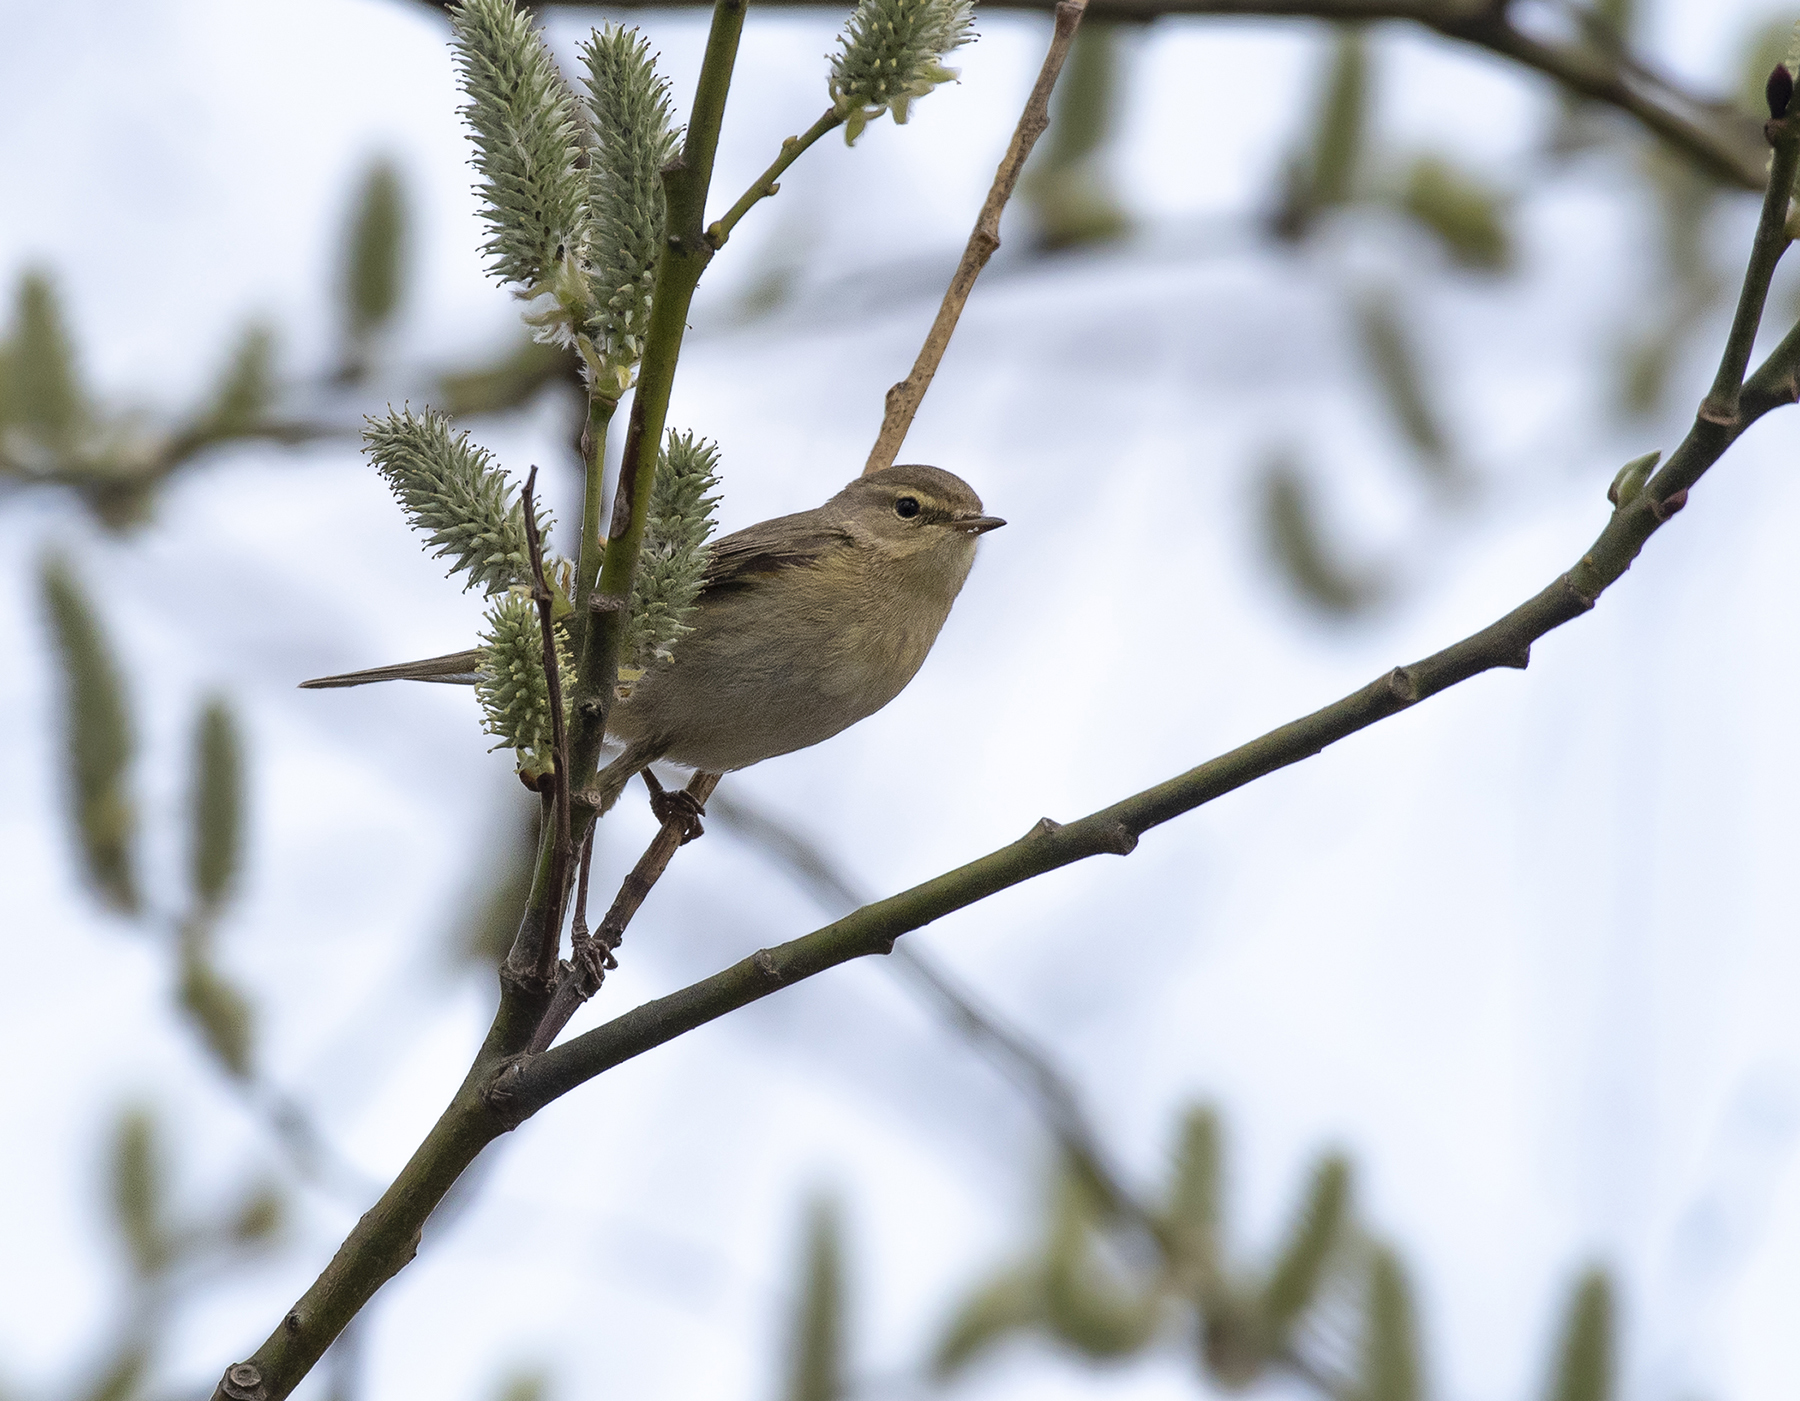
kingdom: Animalia
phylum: Chordata
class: Aves
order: Passeriformes
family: Phylloscopidae
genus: Phylloscopus
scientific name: Phylloscopus collybita
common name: Common chiffchaff
